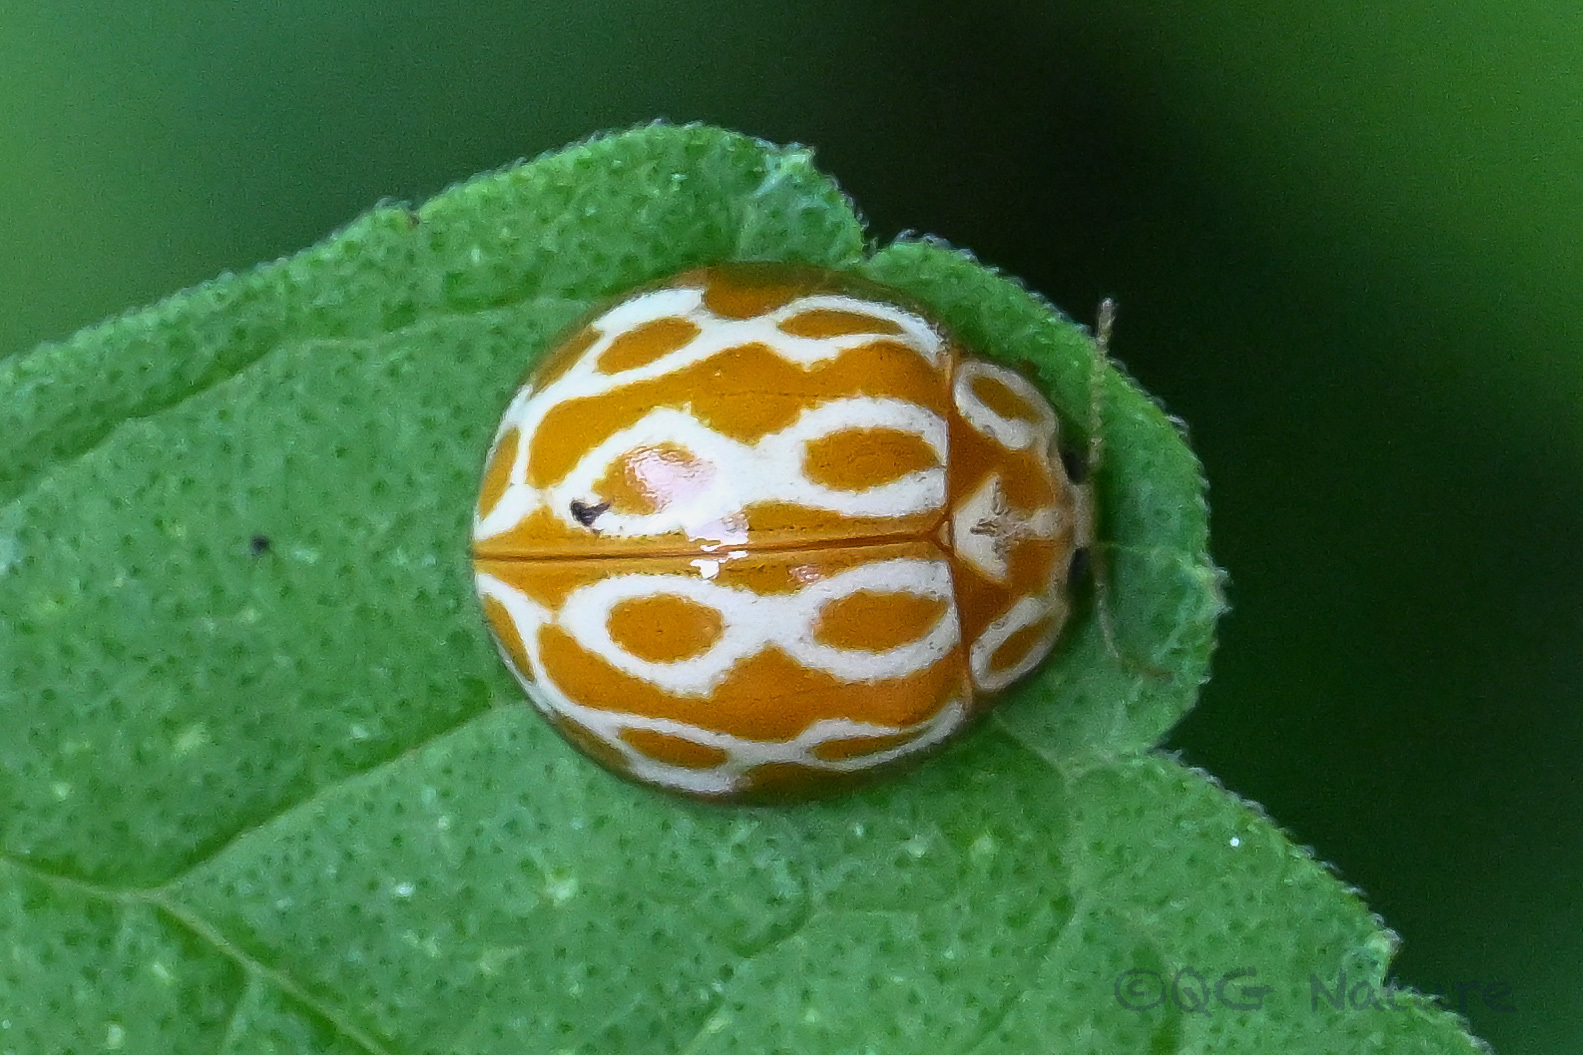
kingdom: Animalia
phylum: Arthropoda
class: Insecta
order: Coleoptera
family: Coccinellidae
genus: Calvia
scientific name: Calvia
